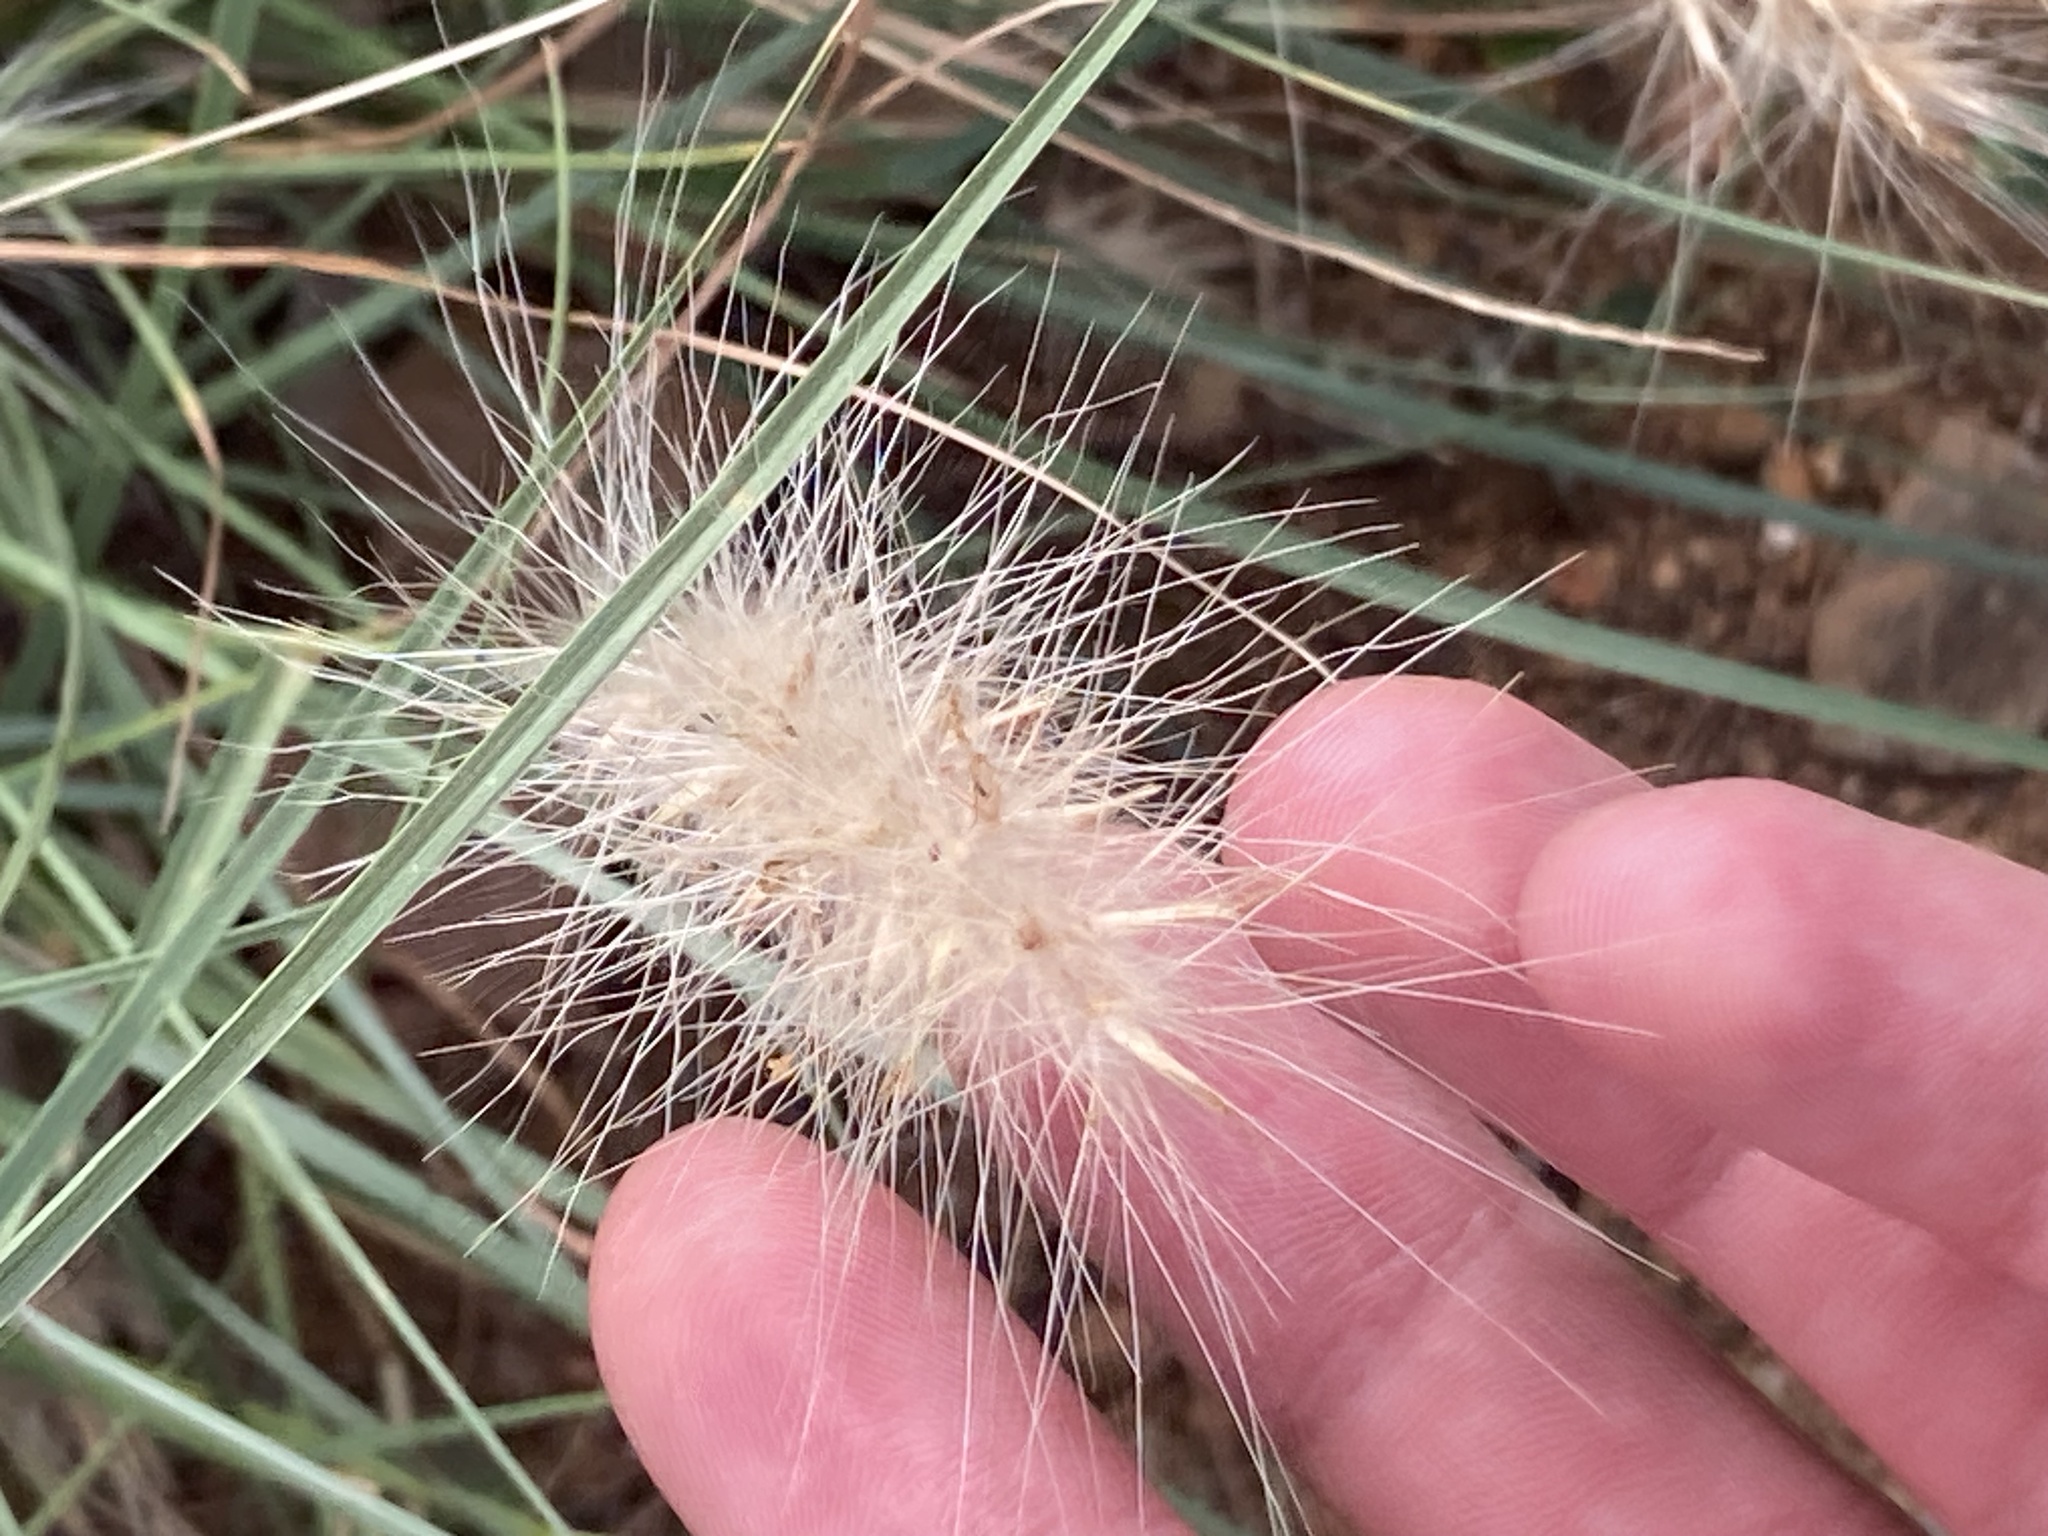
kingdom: Plantae
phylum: Tracheophyta
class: Liliopsida
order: Poales
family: Poaceae
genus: Cenchrus
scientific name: Cenchrus longisetus
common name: Feathertop
